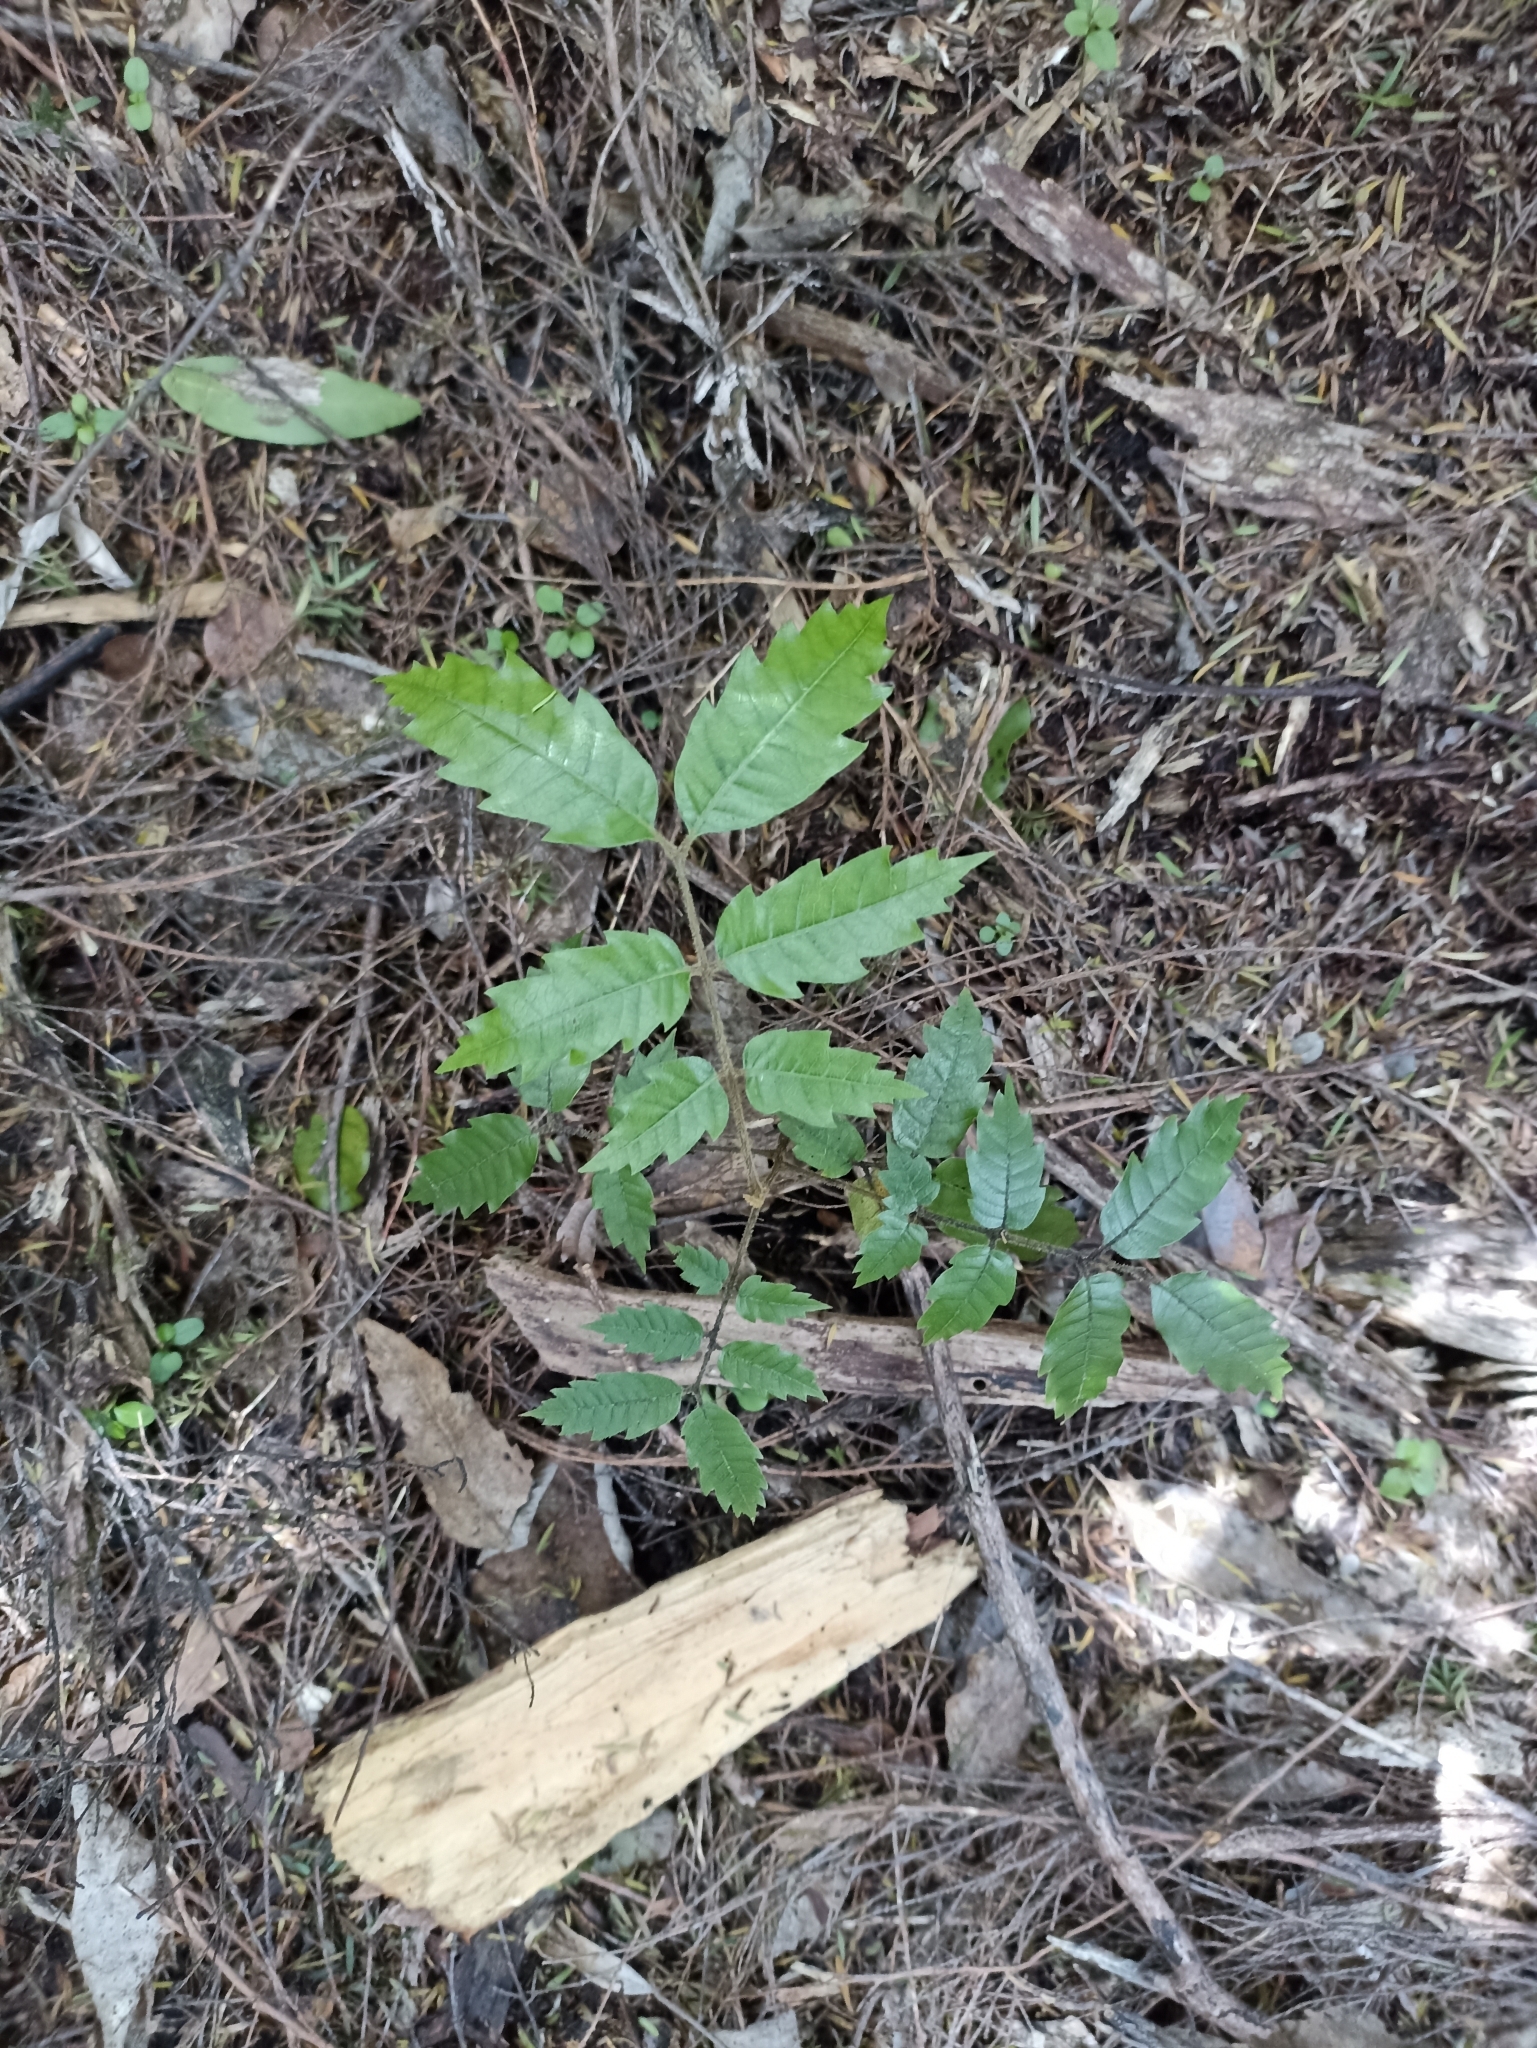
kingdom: Plantae
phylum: Tracheophyta
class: Magnoliopsida
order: Sapindales
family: Sapindaceae
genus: Alectryon
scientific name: Alectryon excelsus
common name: Three kings titoki
